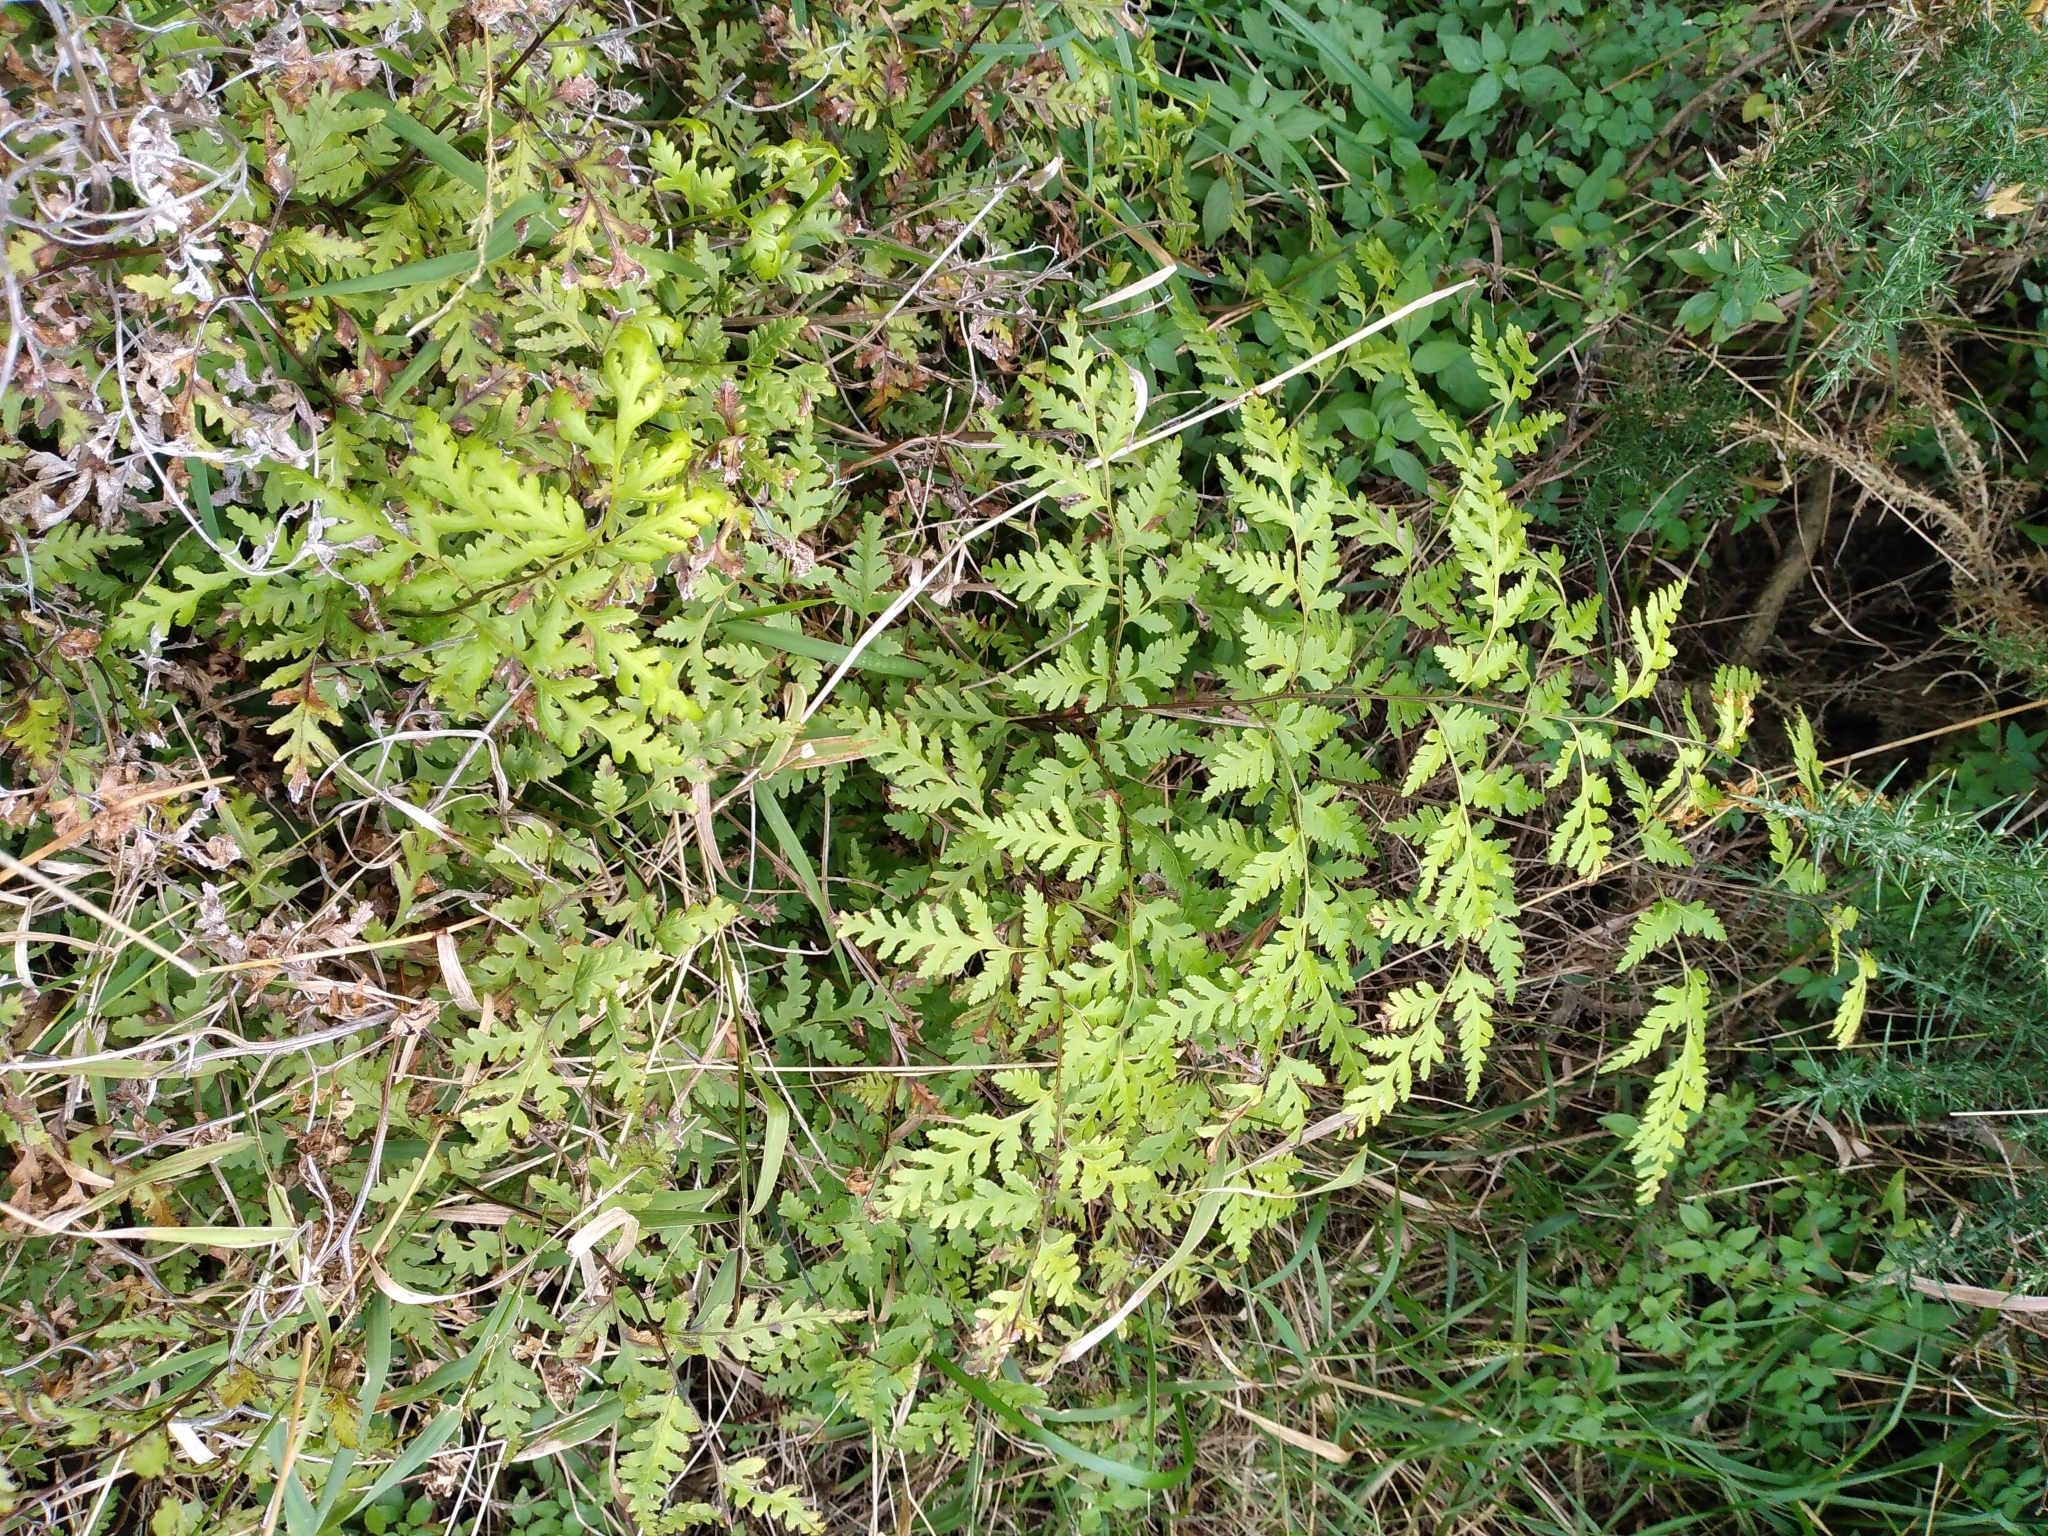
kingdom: Plantae
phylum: Tracheophyta
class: Polypodiopsida
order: Polypodiales
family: Pteridaceae
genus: Pteris
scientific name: Pteris macilenta
